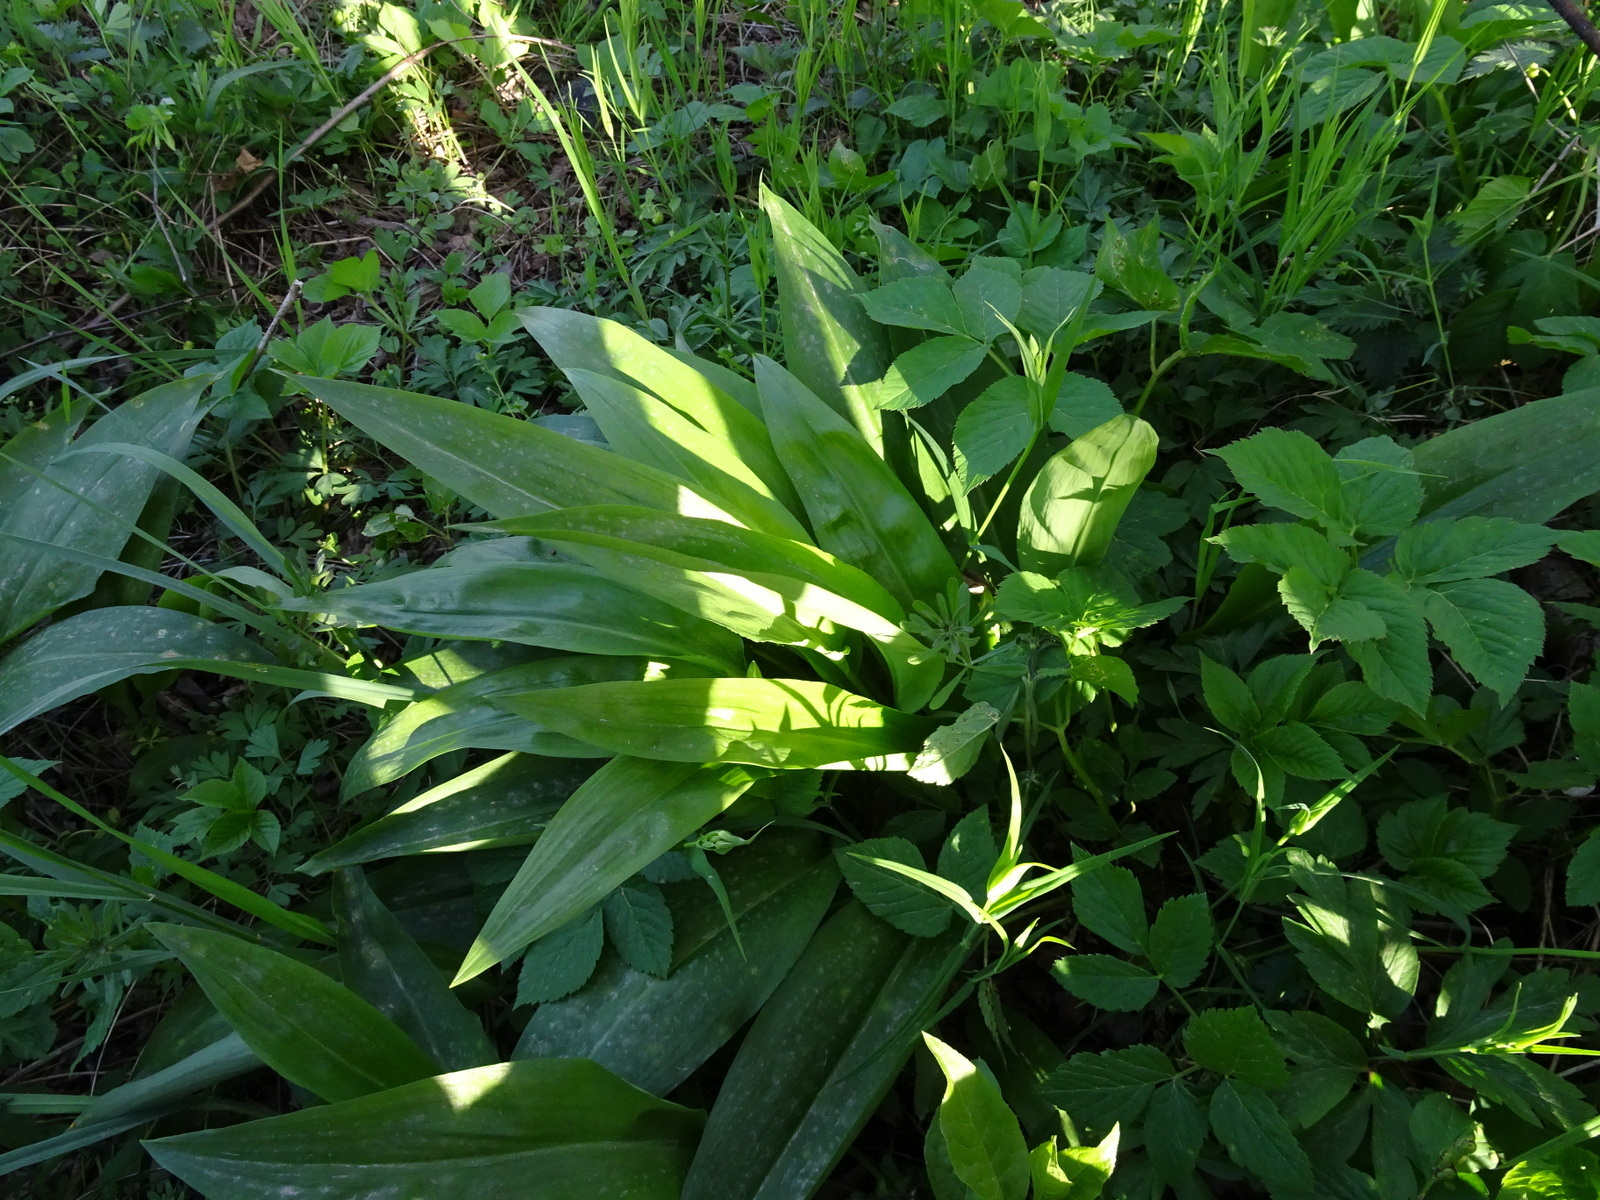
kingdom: Plantae
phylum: Tracheophyta
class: Liliopsida
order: Asparagales
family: Amaryllidaceae
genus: Allium
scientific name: Allium ursinum
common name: Ramsons
